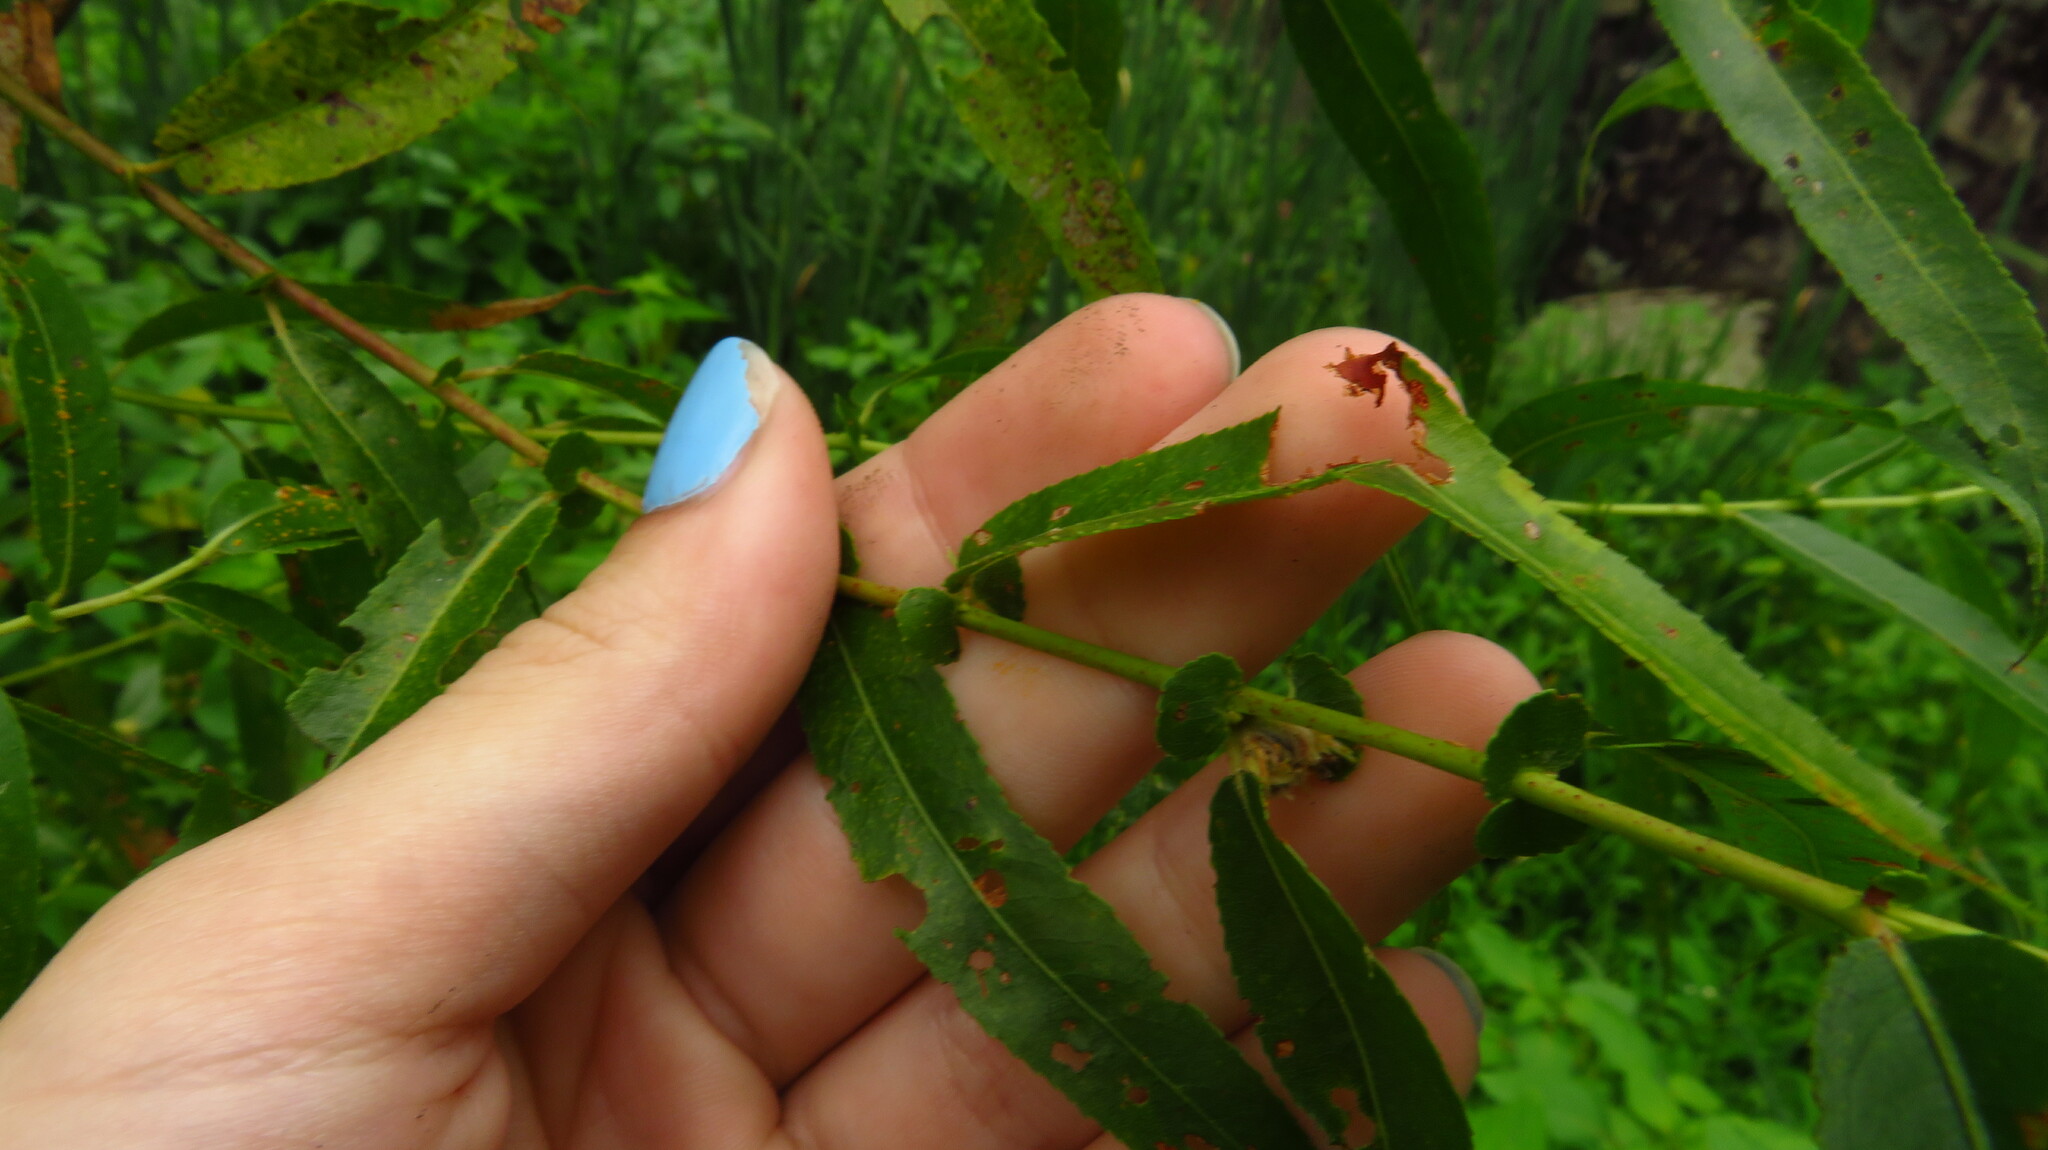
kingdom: Plantae
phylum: Tracheophyta
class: Magnoliopsida
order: Malpighiales
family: Salicaceae
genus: Salix
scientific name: Salix nigra
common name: Black willow
